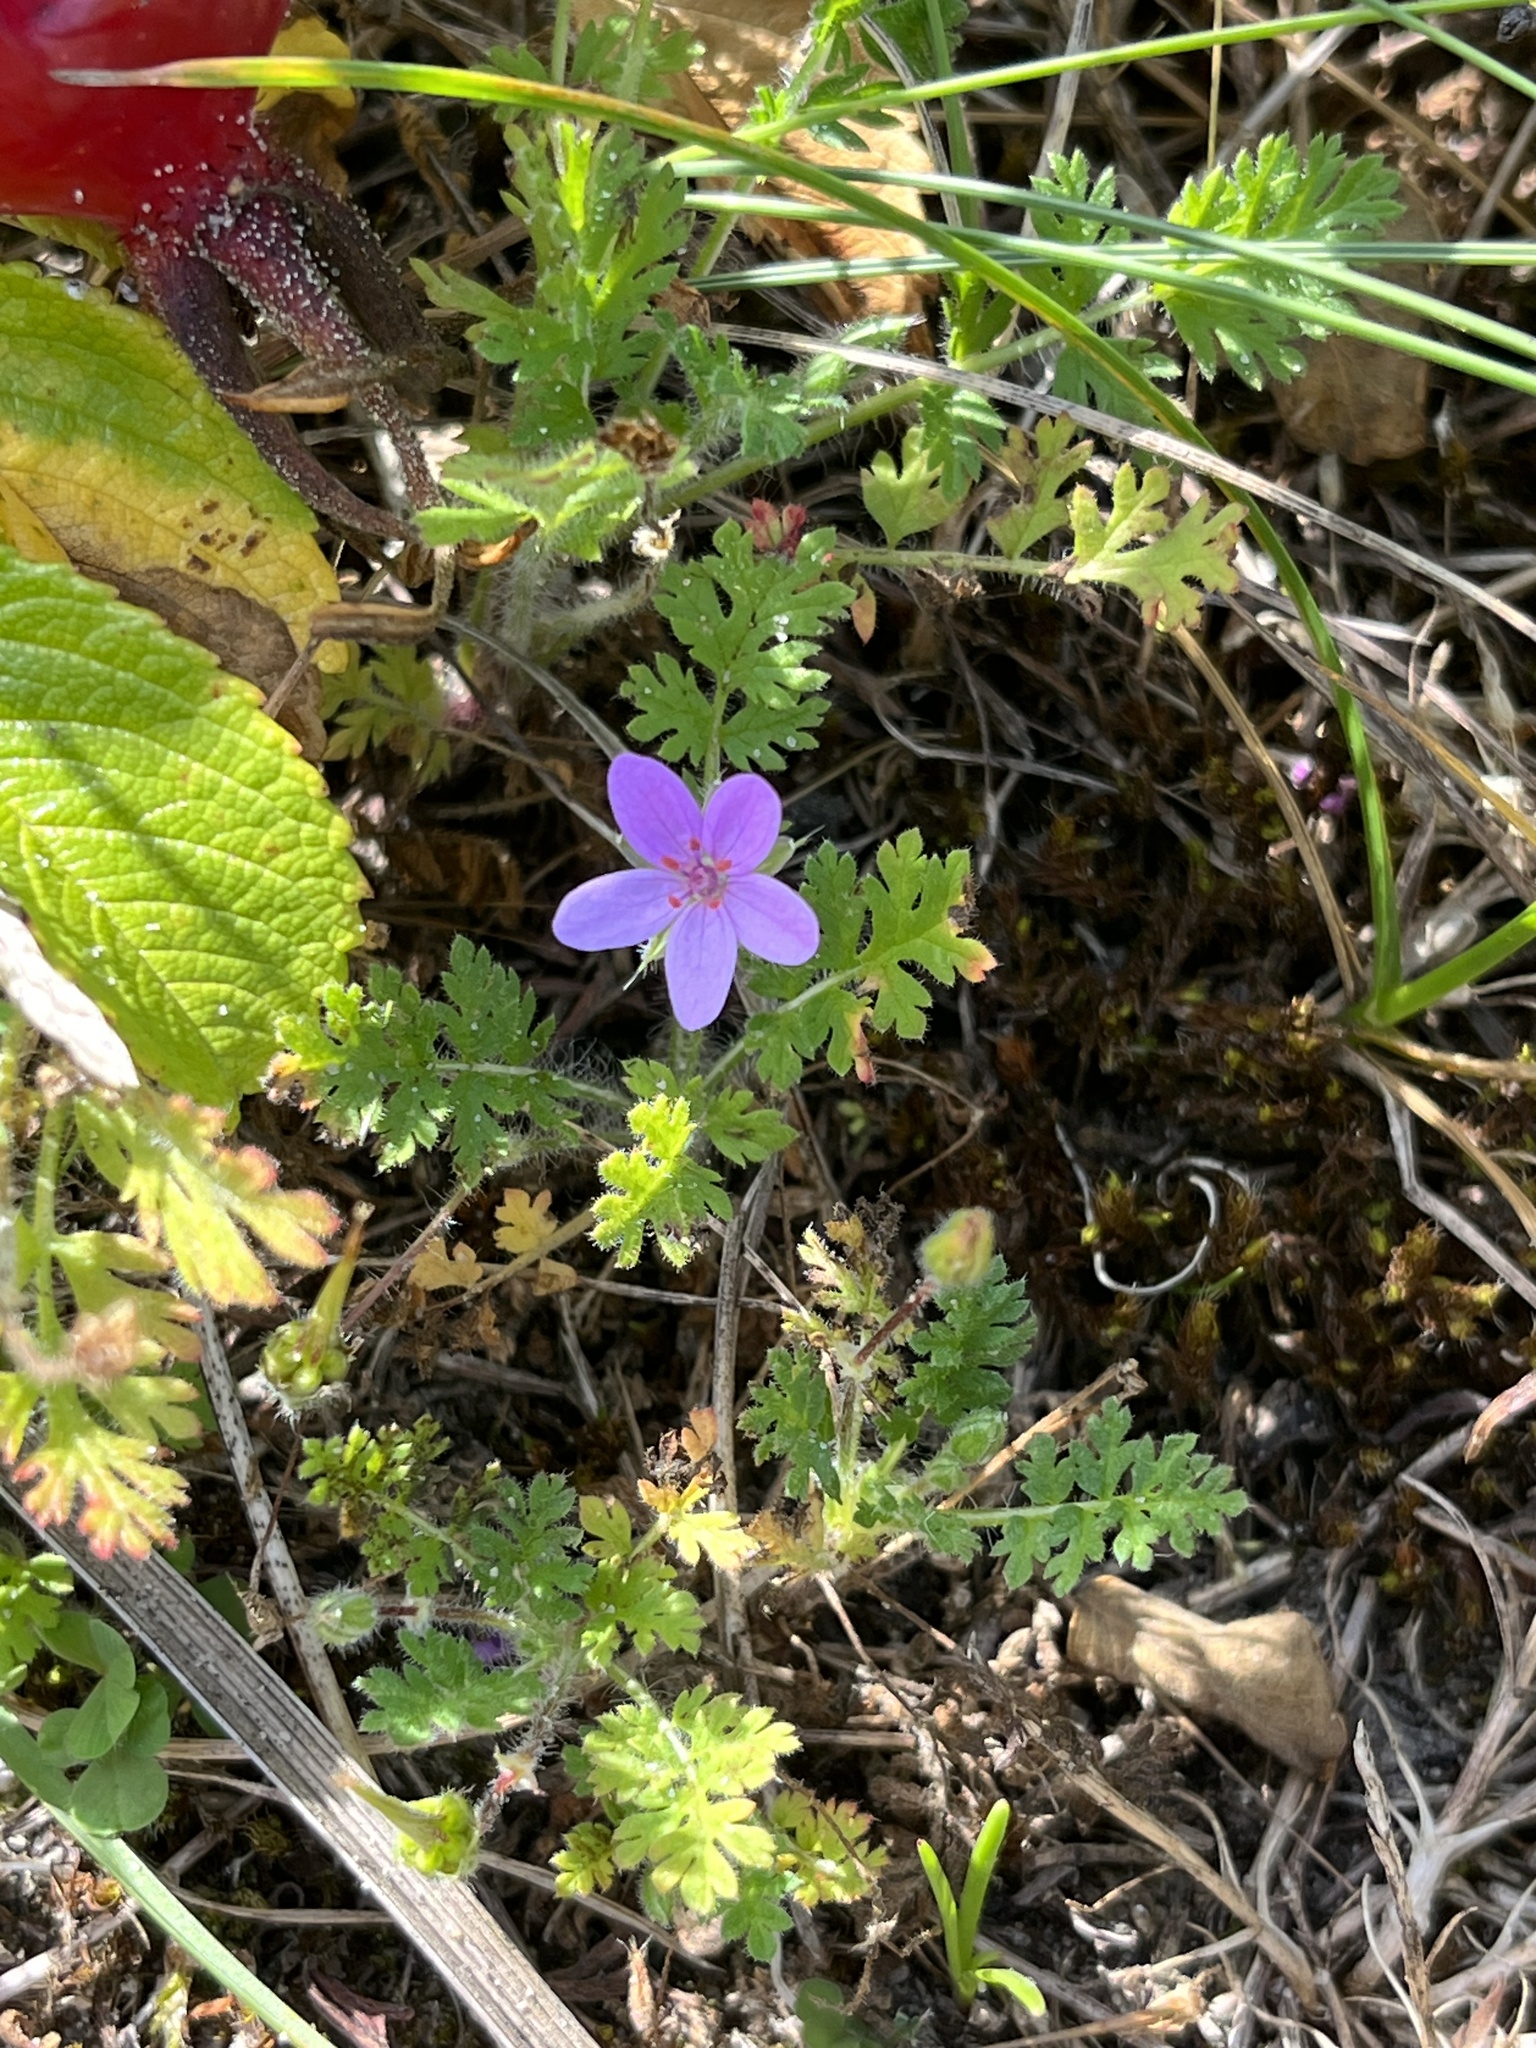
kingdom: Plantae
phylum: Tracheophyta
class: Magnoliopsida
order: Geraniales
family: Geraniaceae
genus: Erodium
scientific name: Erodium cicutarium
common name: Common stork's-bill
